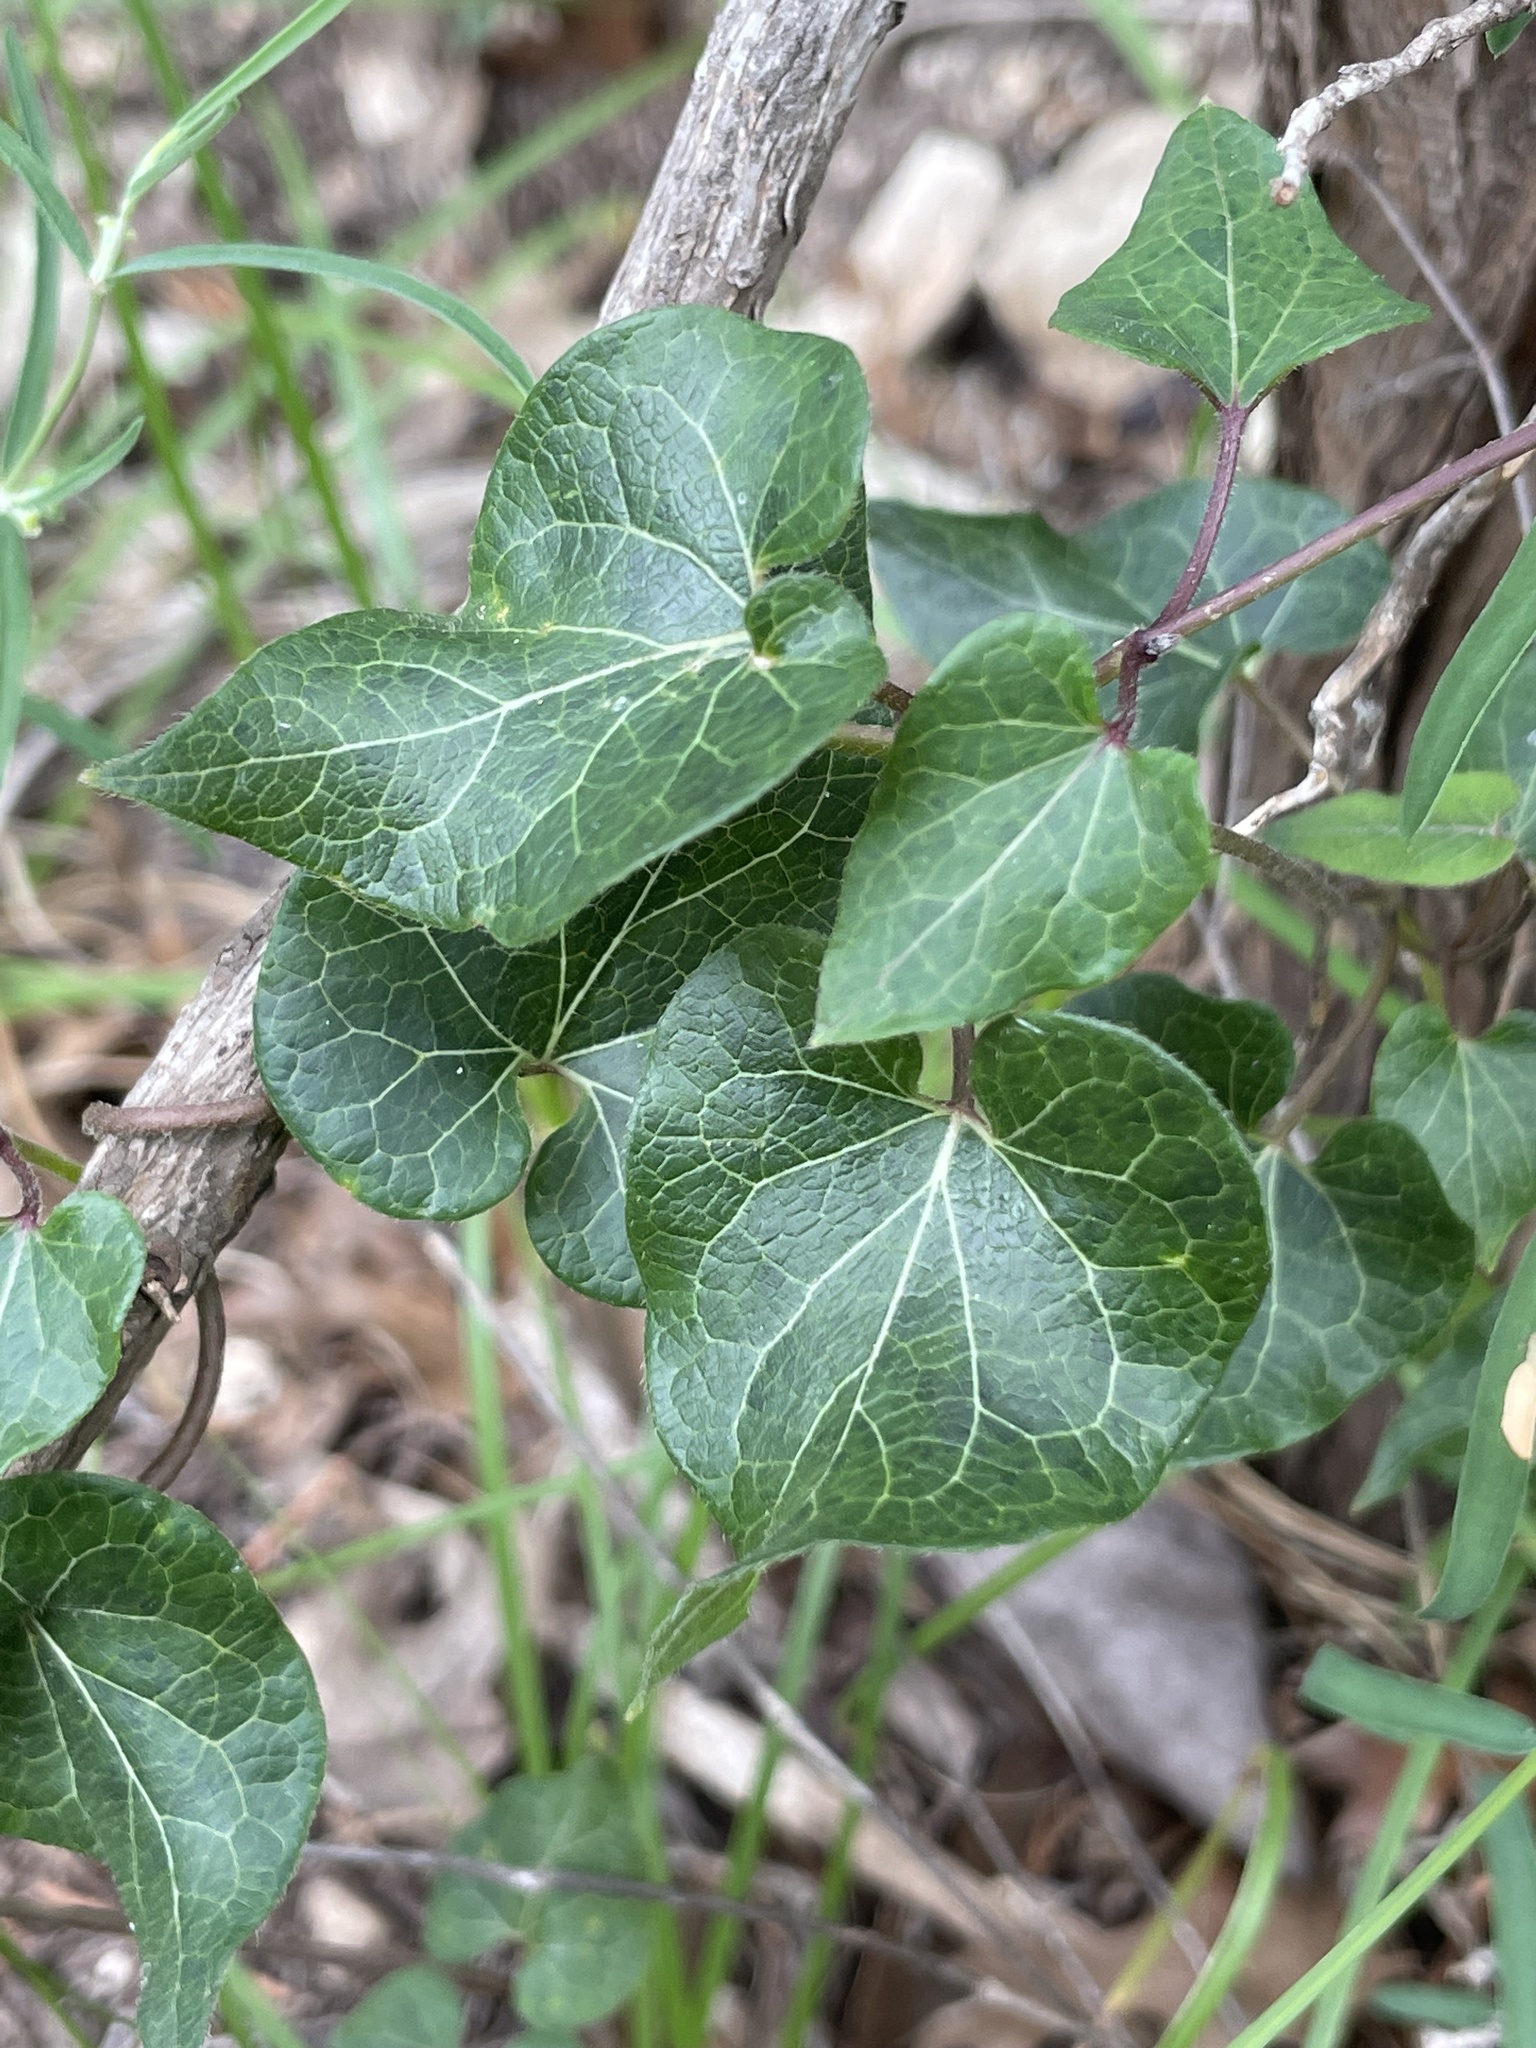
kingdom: Plantae
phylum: Tracheophyta
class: Magnoliopsida
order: Gentianales
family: Apocynaceae
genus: Matelea
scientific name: Matelea edwardsensis
